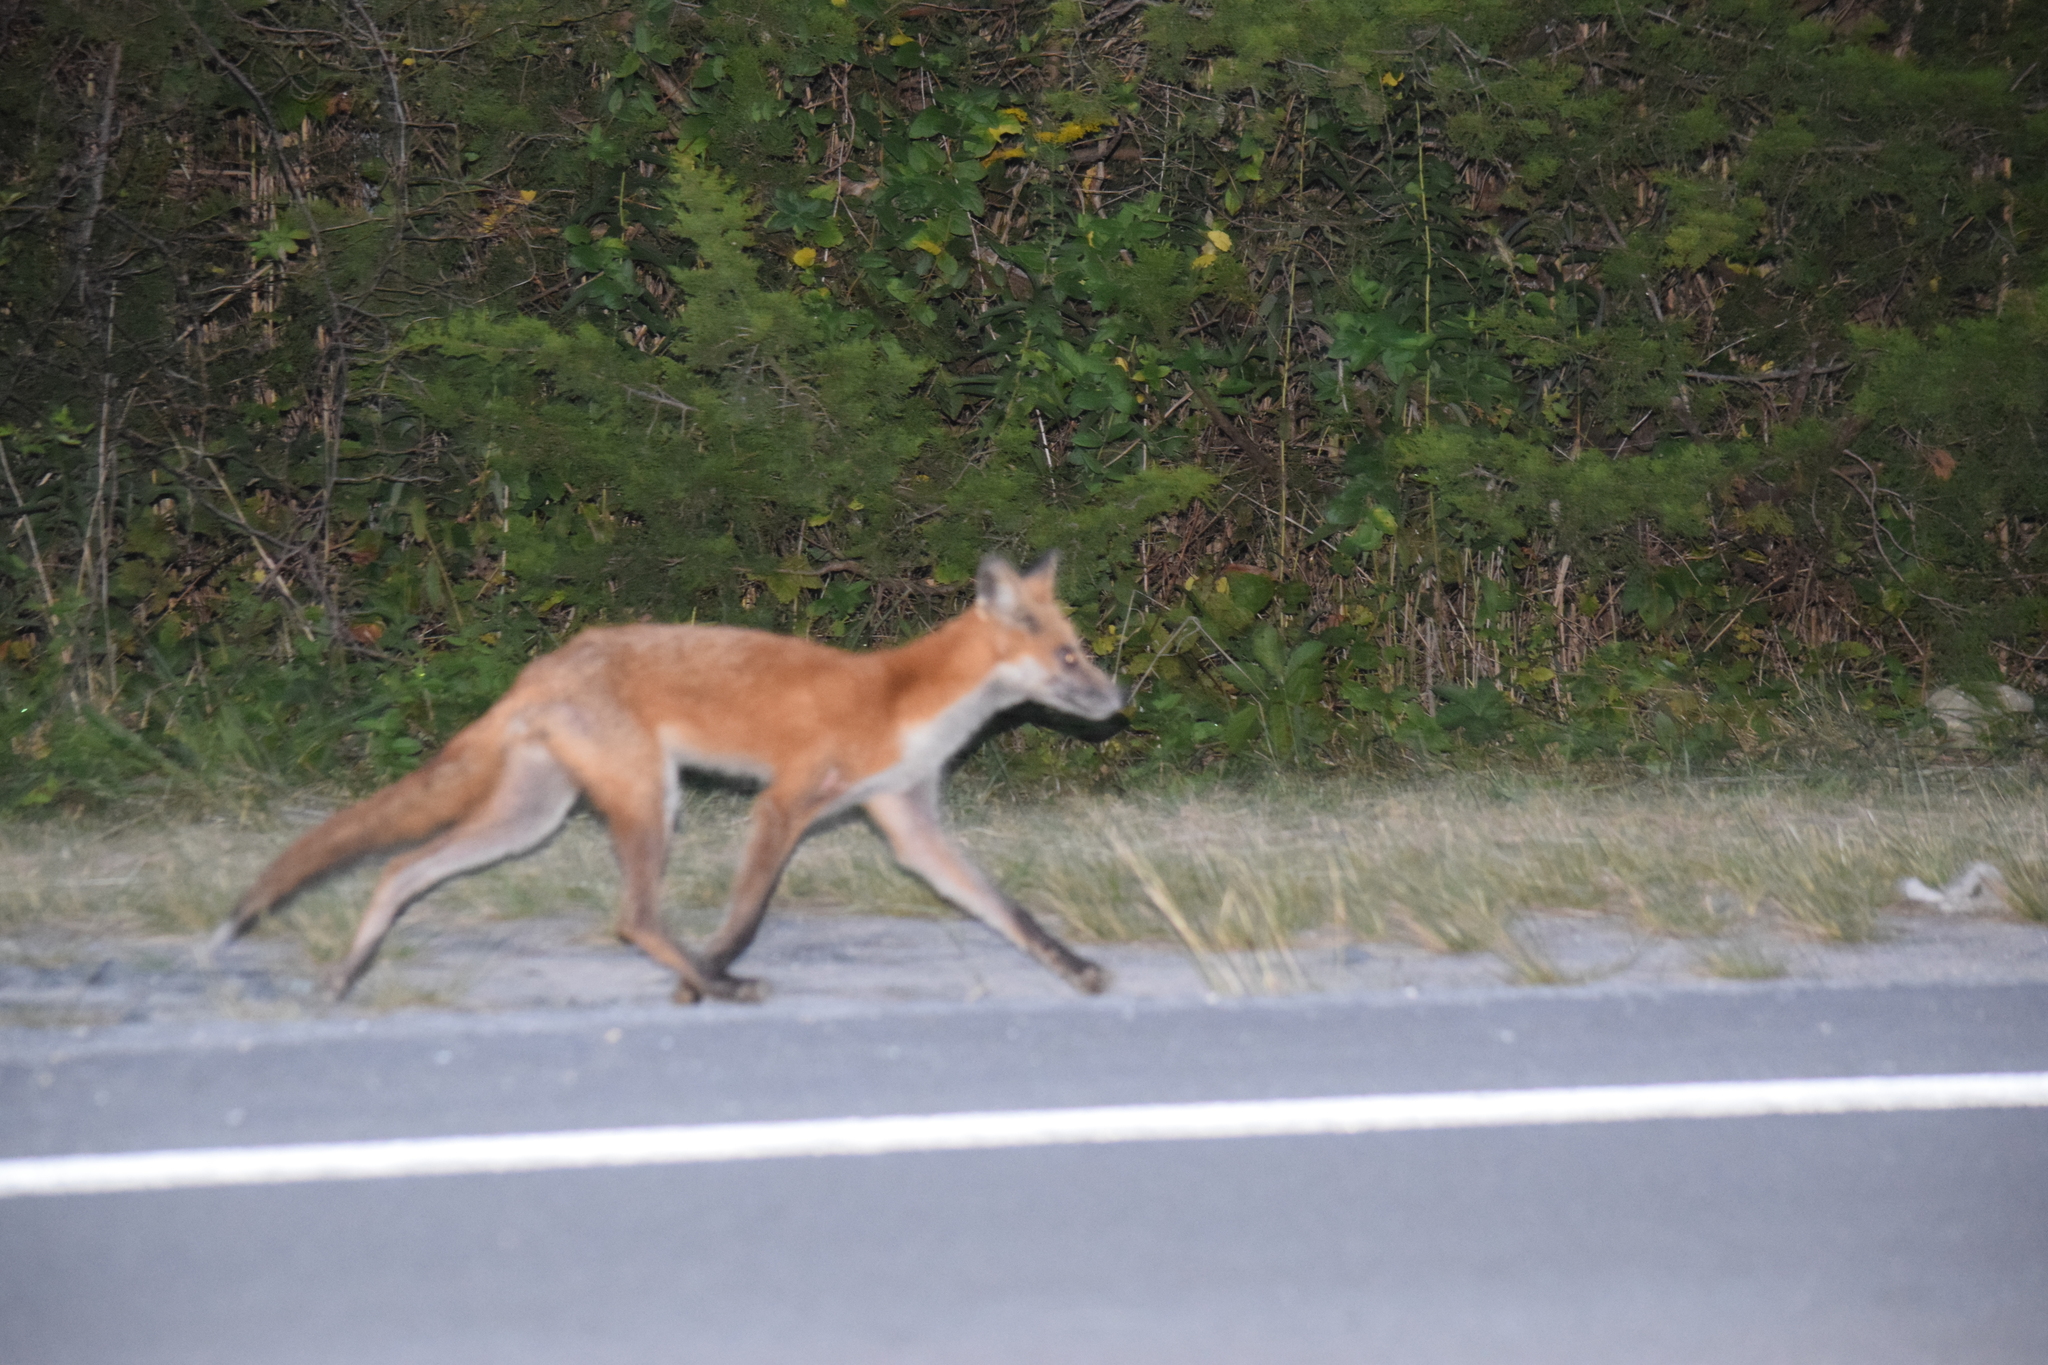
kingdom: Animalia
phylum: Chordata
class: Mammalia
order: Carnivora
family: Canidae
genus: Vulpes
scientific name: Vulpes vulpes
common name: Red fox
